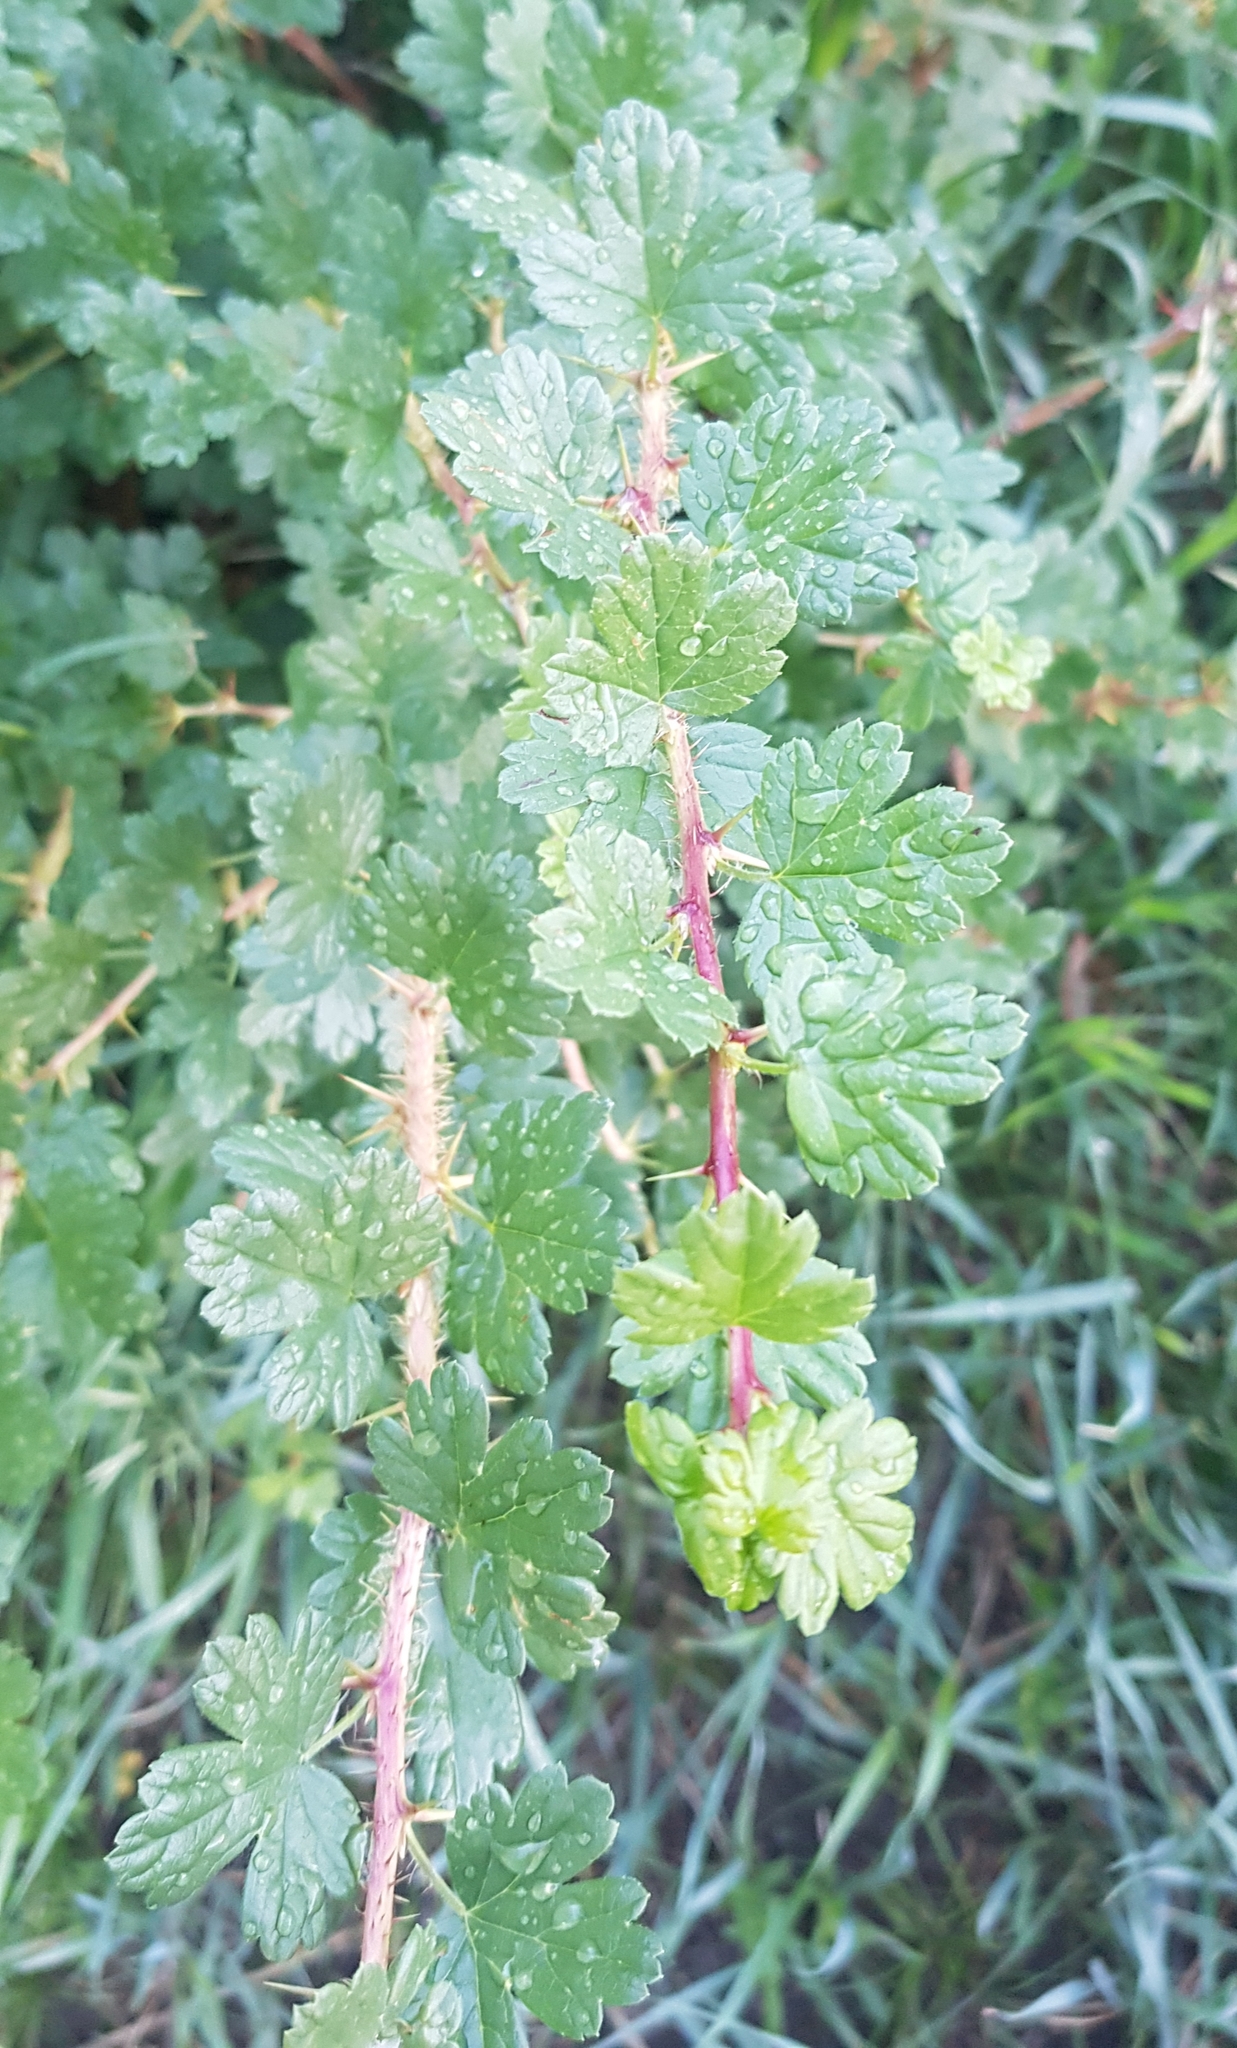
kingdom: Plantae
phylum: Tracheophyta
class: Magnoliopsida
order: Saxifragales
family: Grossulariaceae
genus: Ribes
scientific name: Ribes aciculare
